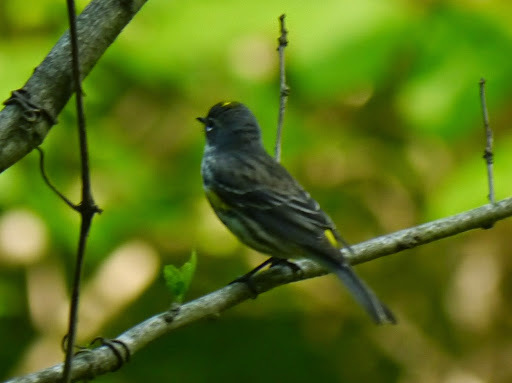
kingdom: Animalia
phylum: Chordata
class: Aves
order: Passeriformes
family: Parulidae
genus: Setophaga
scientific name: Setophaga coronata
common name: Myrtle warbler
